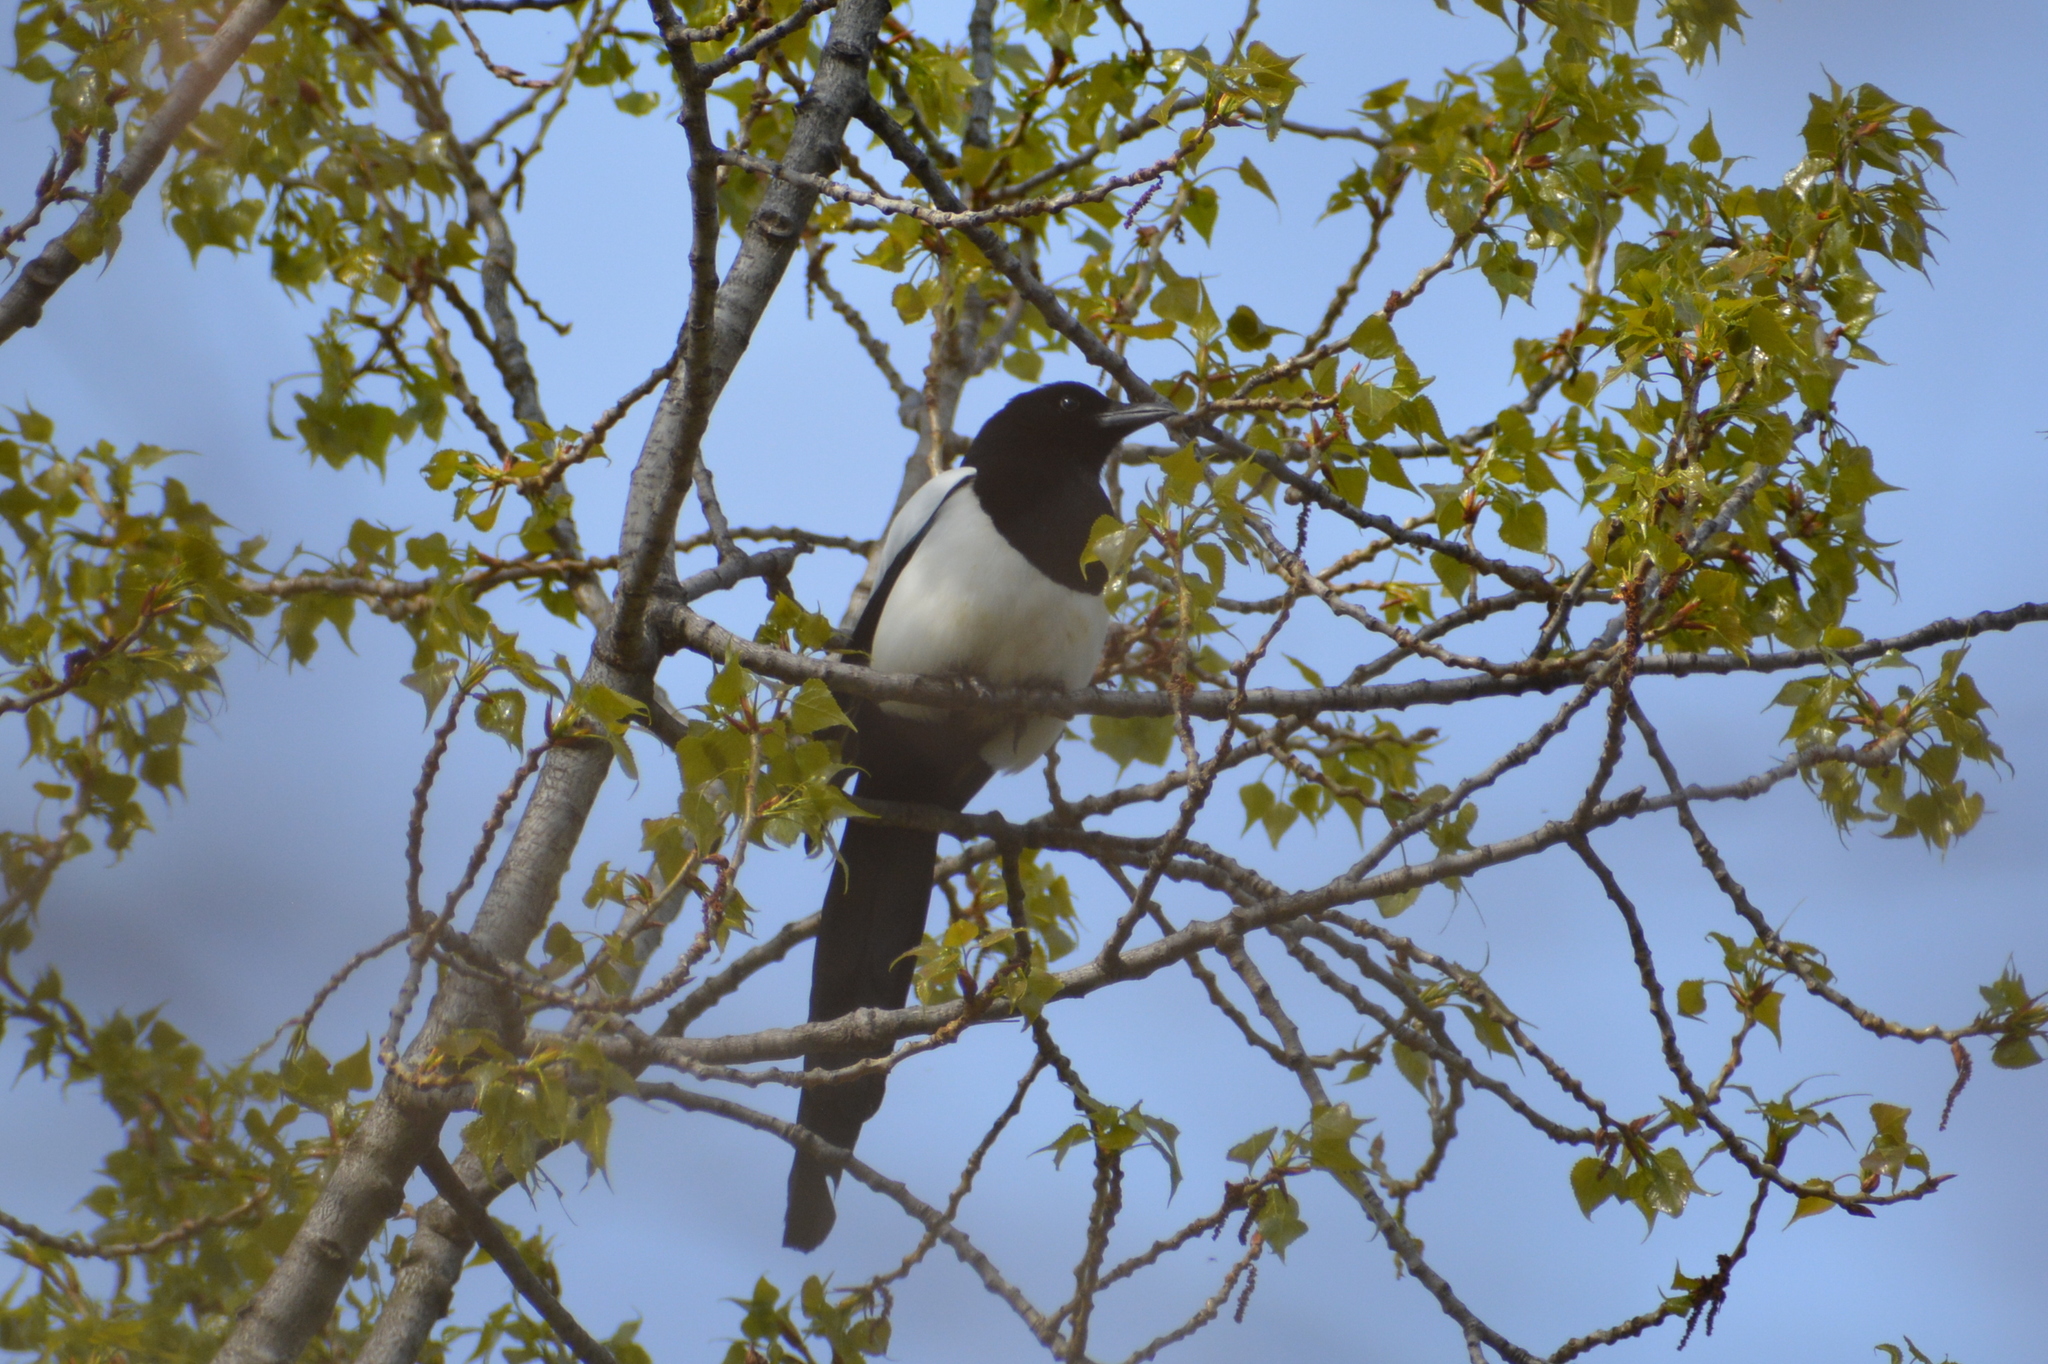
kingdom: Animalia
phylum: Chordata
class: Aves
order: Passeriformes
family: Corvidae
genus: Pica
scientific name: Pica pica
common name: Eurasian magpie
